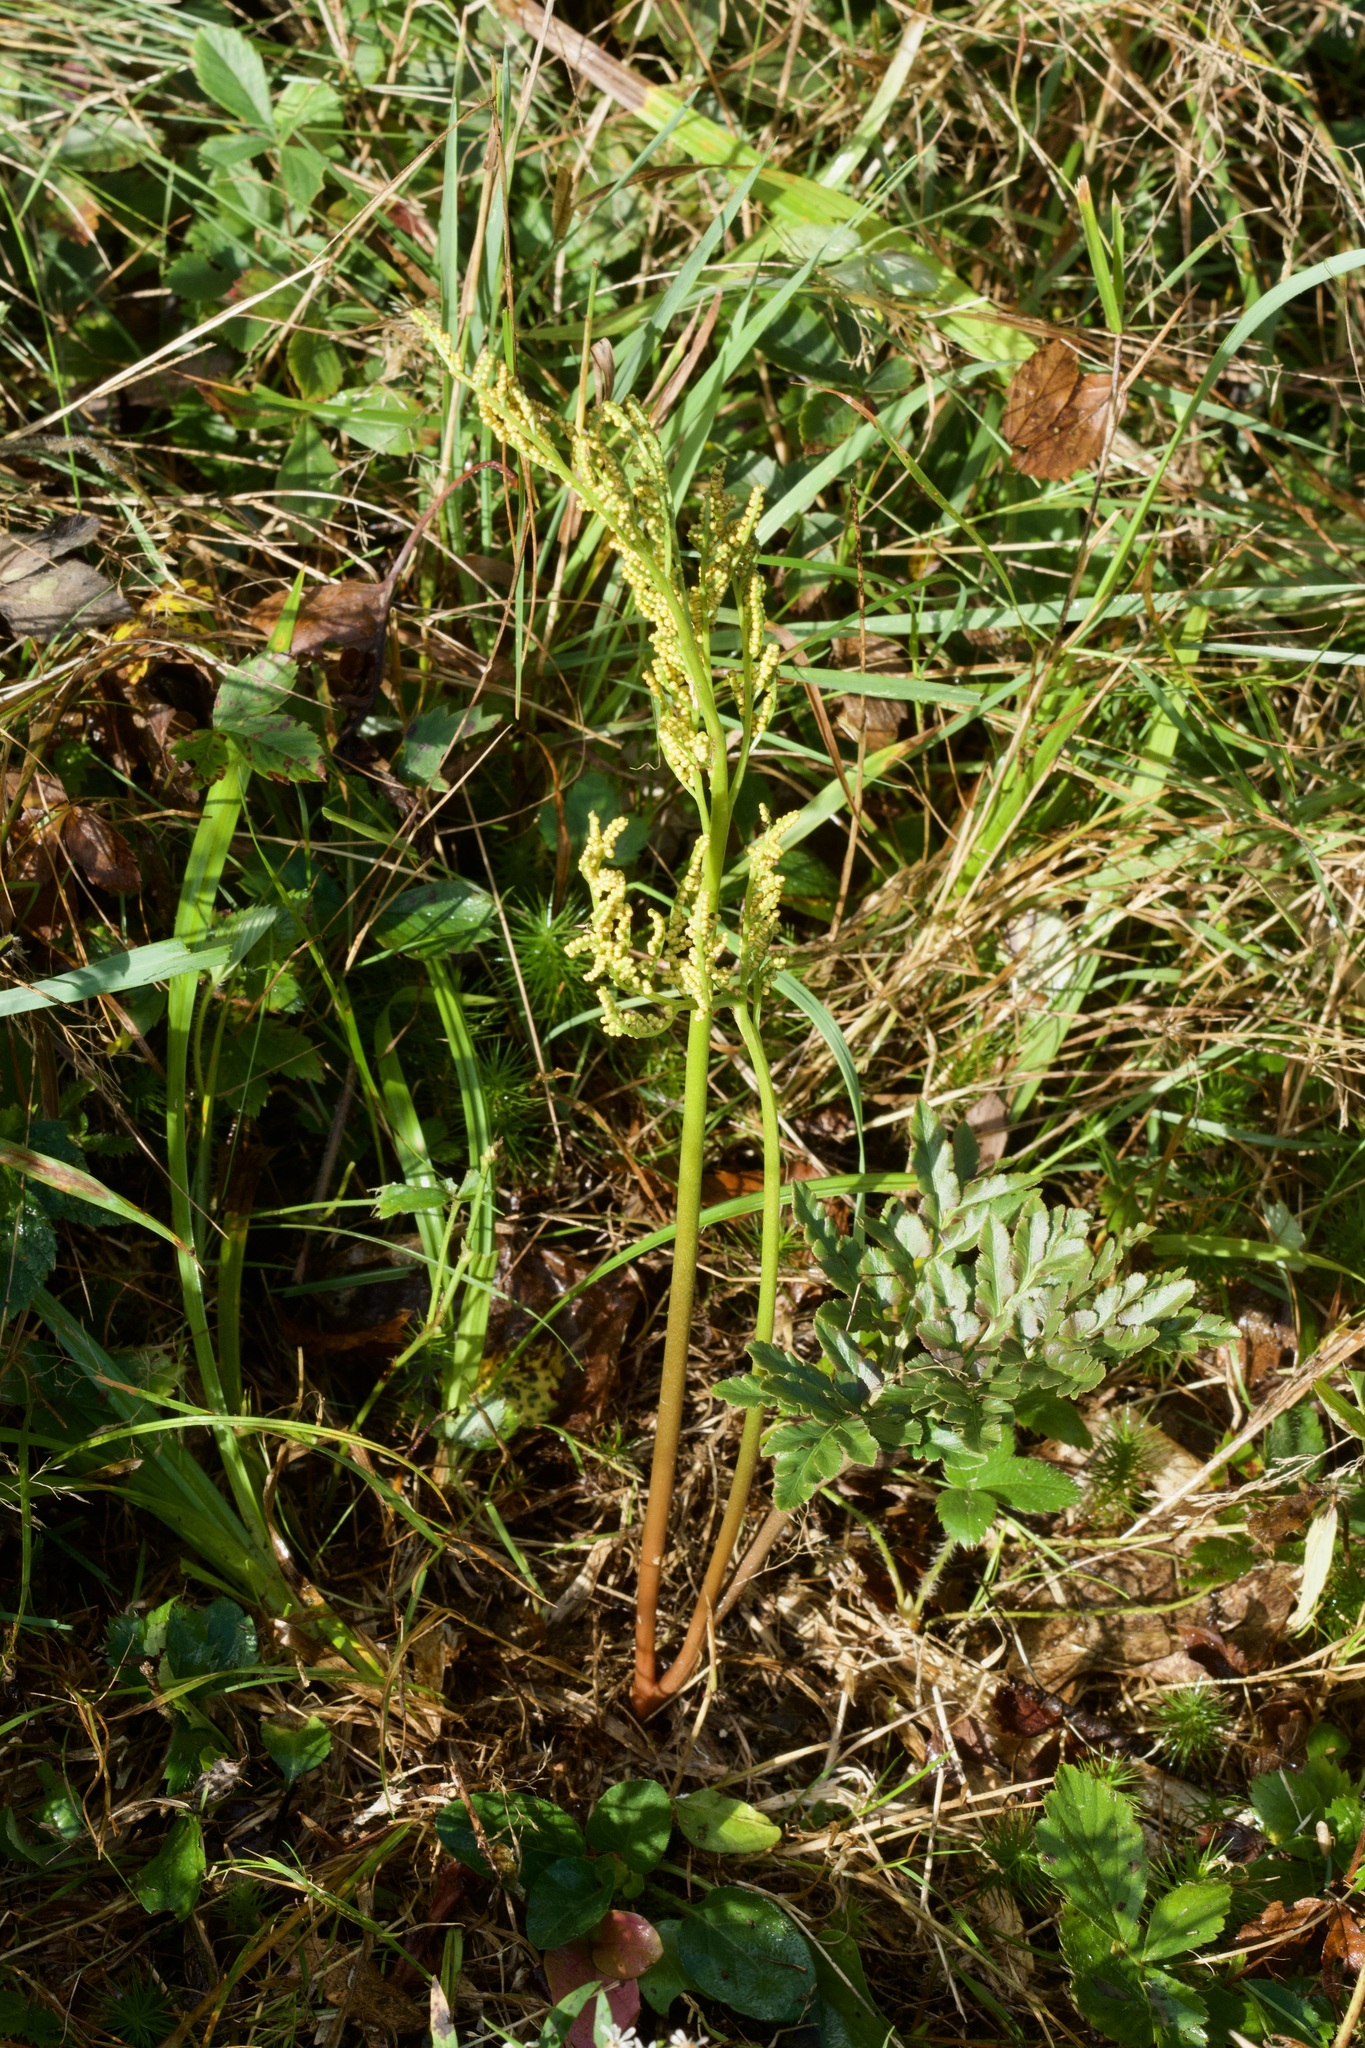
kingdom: Plantae
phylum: Tracheophyta
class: Polypodiopsida
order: Ophioglossales
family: Ophioglossaceae
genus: Sceptridium
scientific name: Sceptridium dissectum
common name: Cut-leaved grapefern
